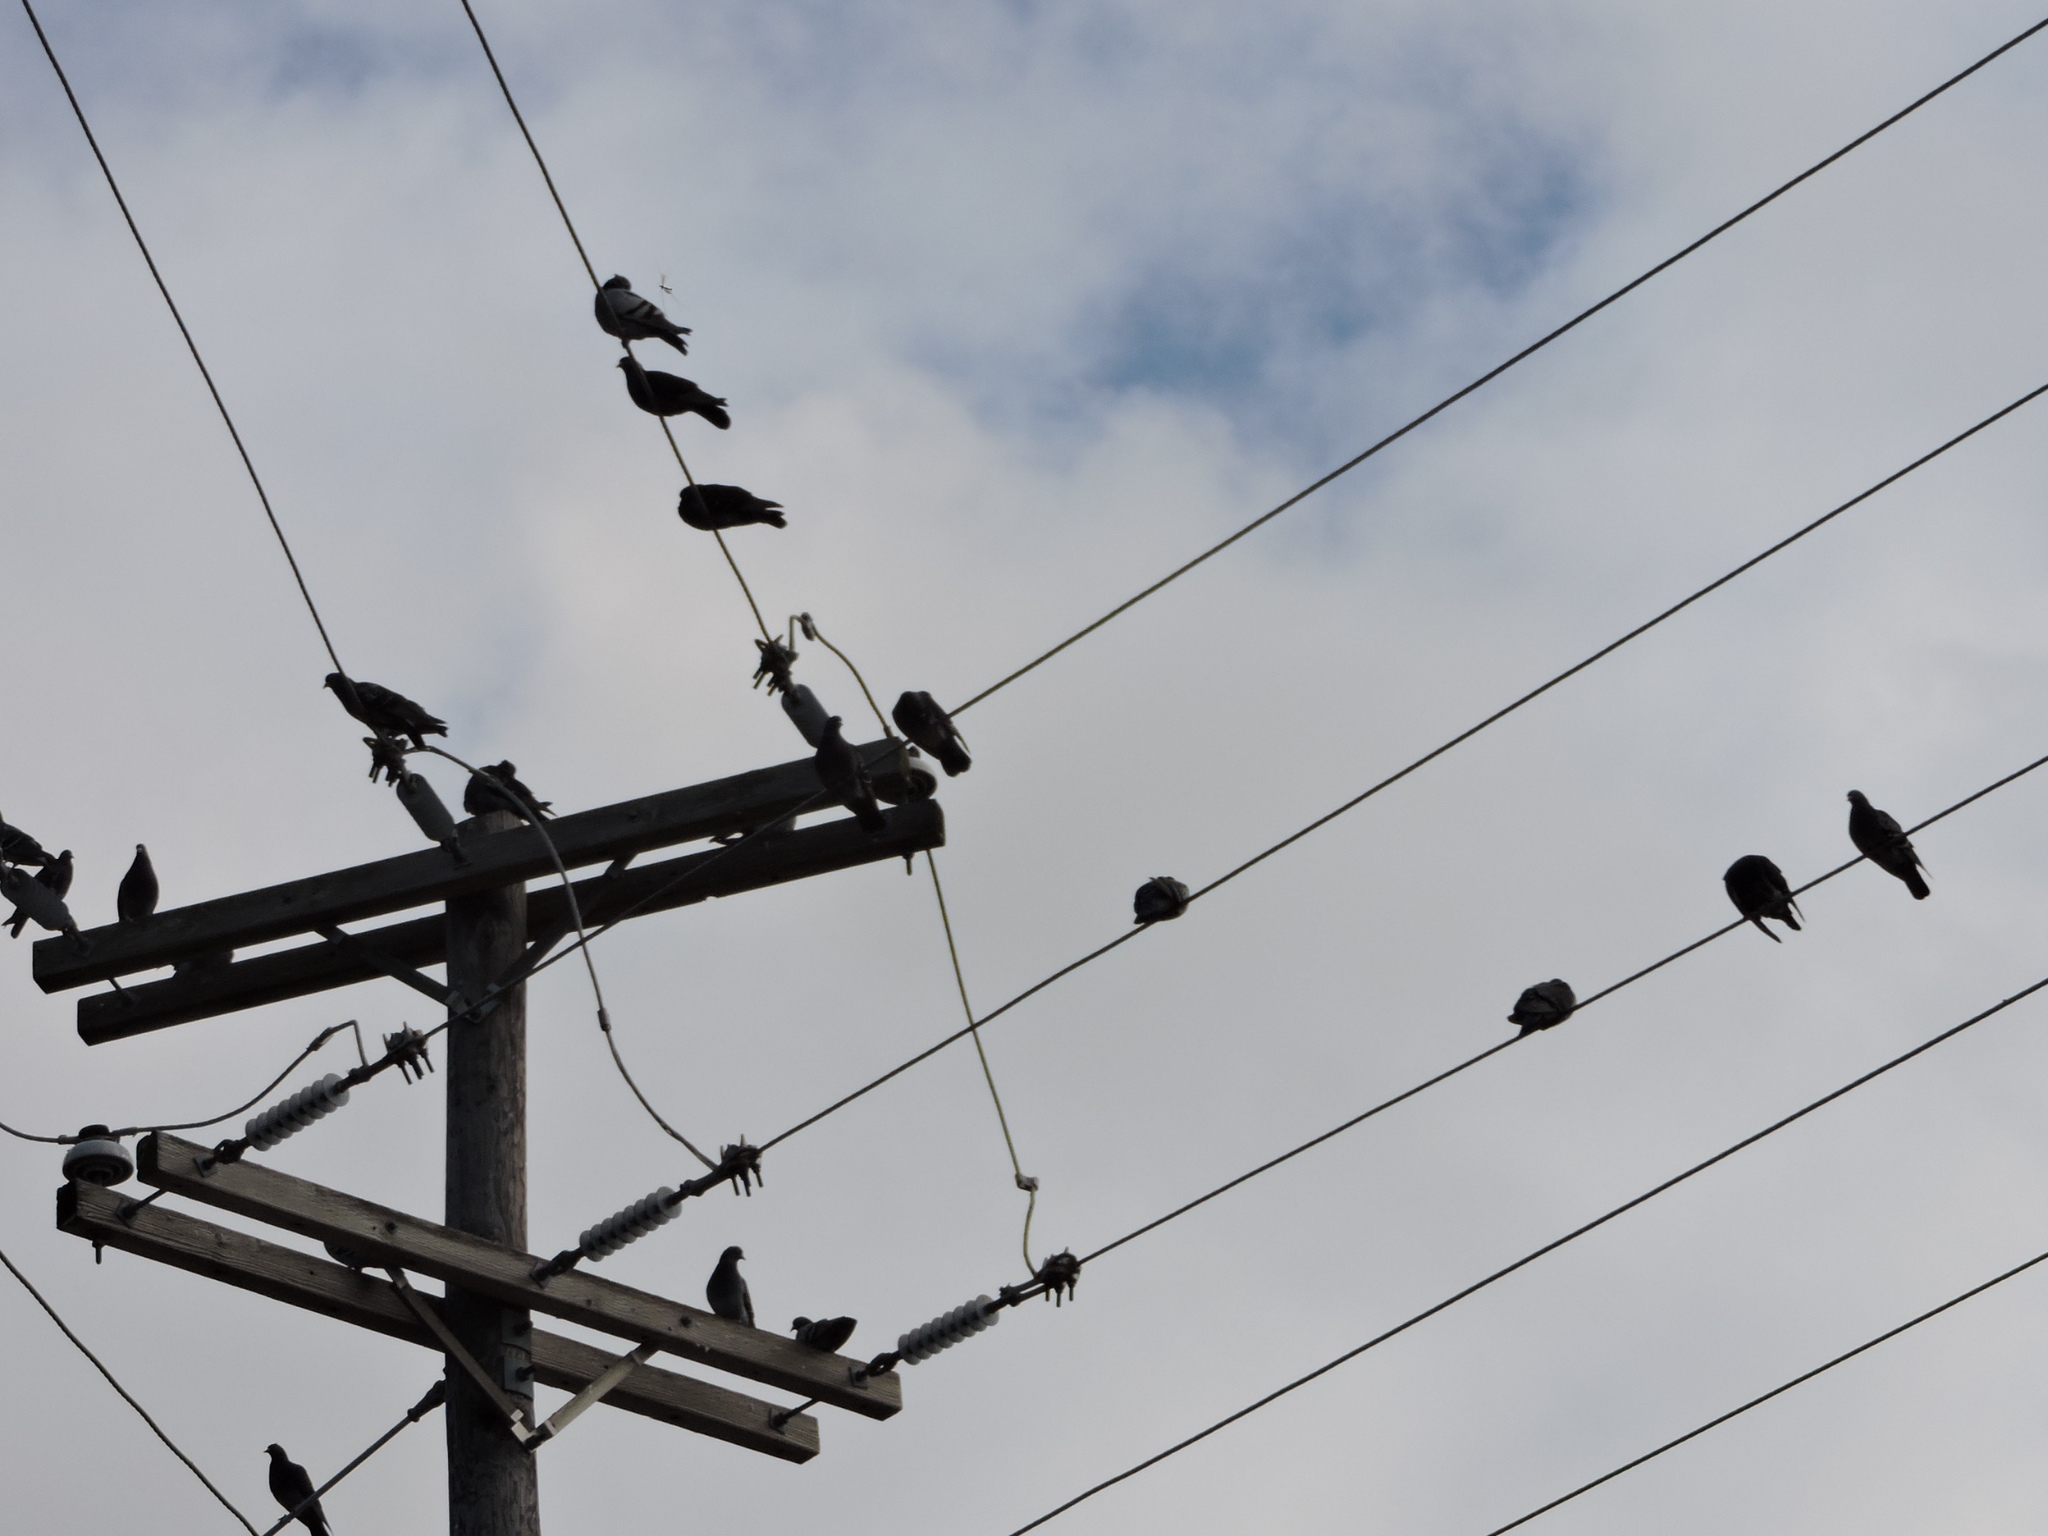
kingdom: Animalia
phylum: Chordata
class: Aves
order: Columbiformes
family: Columbidae
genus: Columba
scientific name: Columba livia
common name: Rock pigeon
